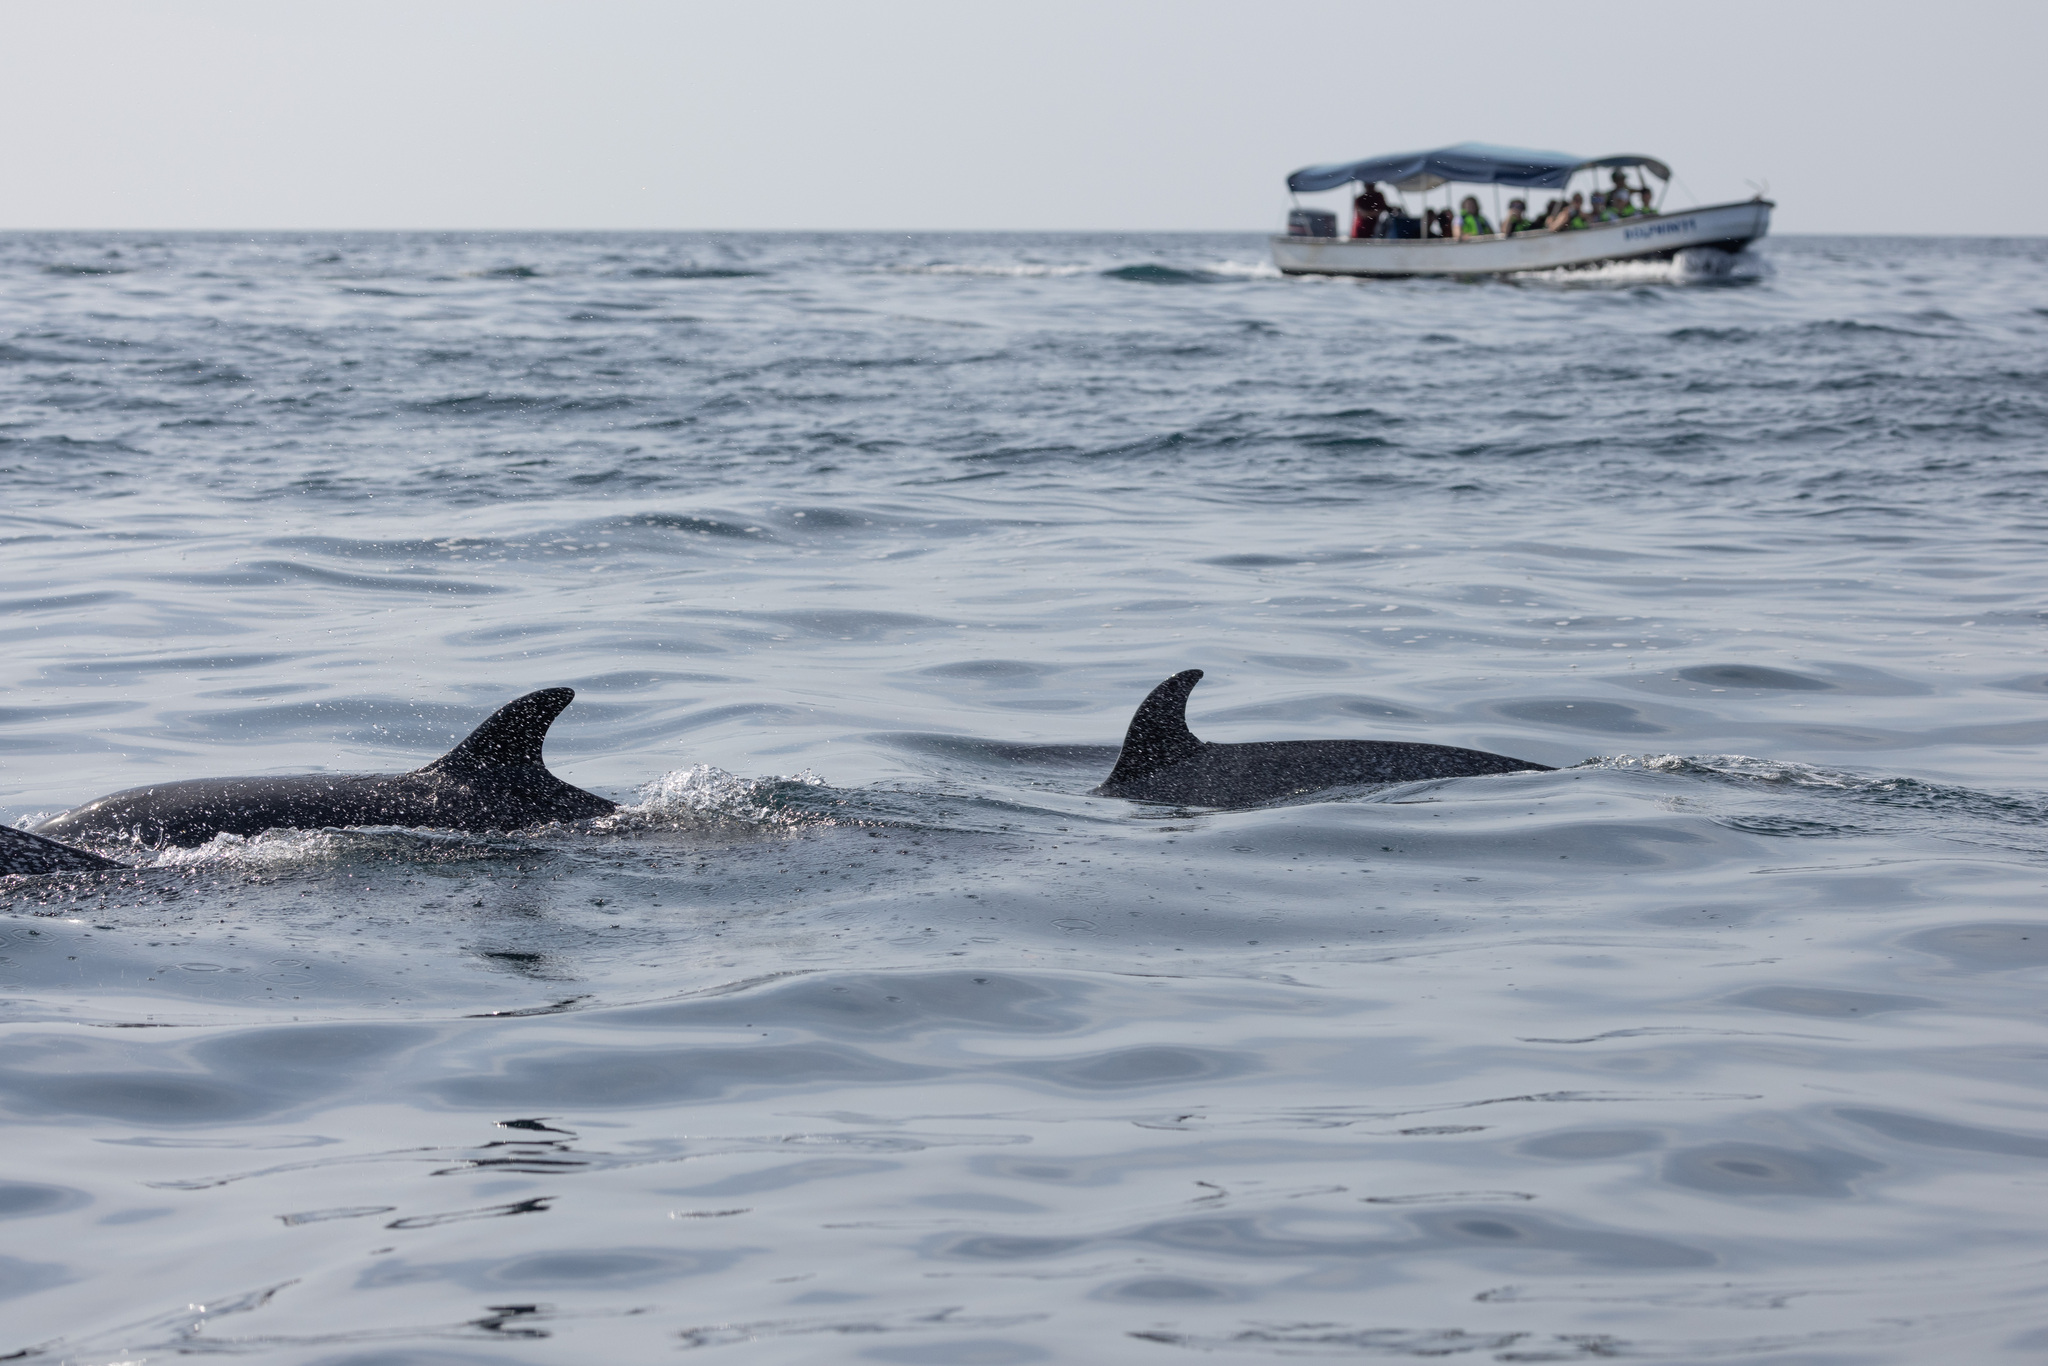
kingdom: Animalia
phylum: Chordata
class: Mammalia
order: Cetacea
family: Delphinidae
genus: Stenella
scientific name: Stenella attenuata
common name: Pantropical spotted dolphin
